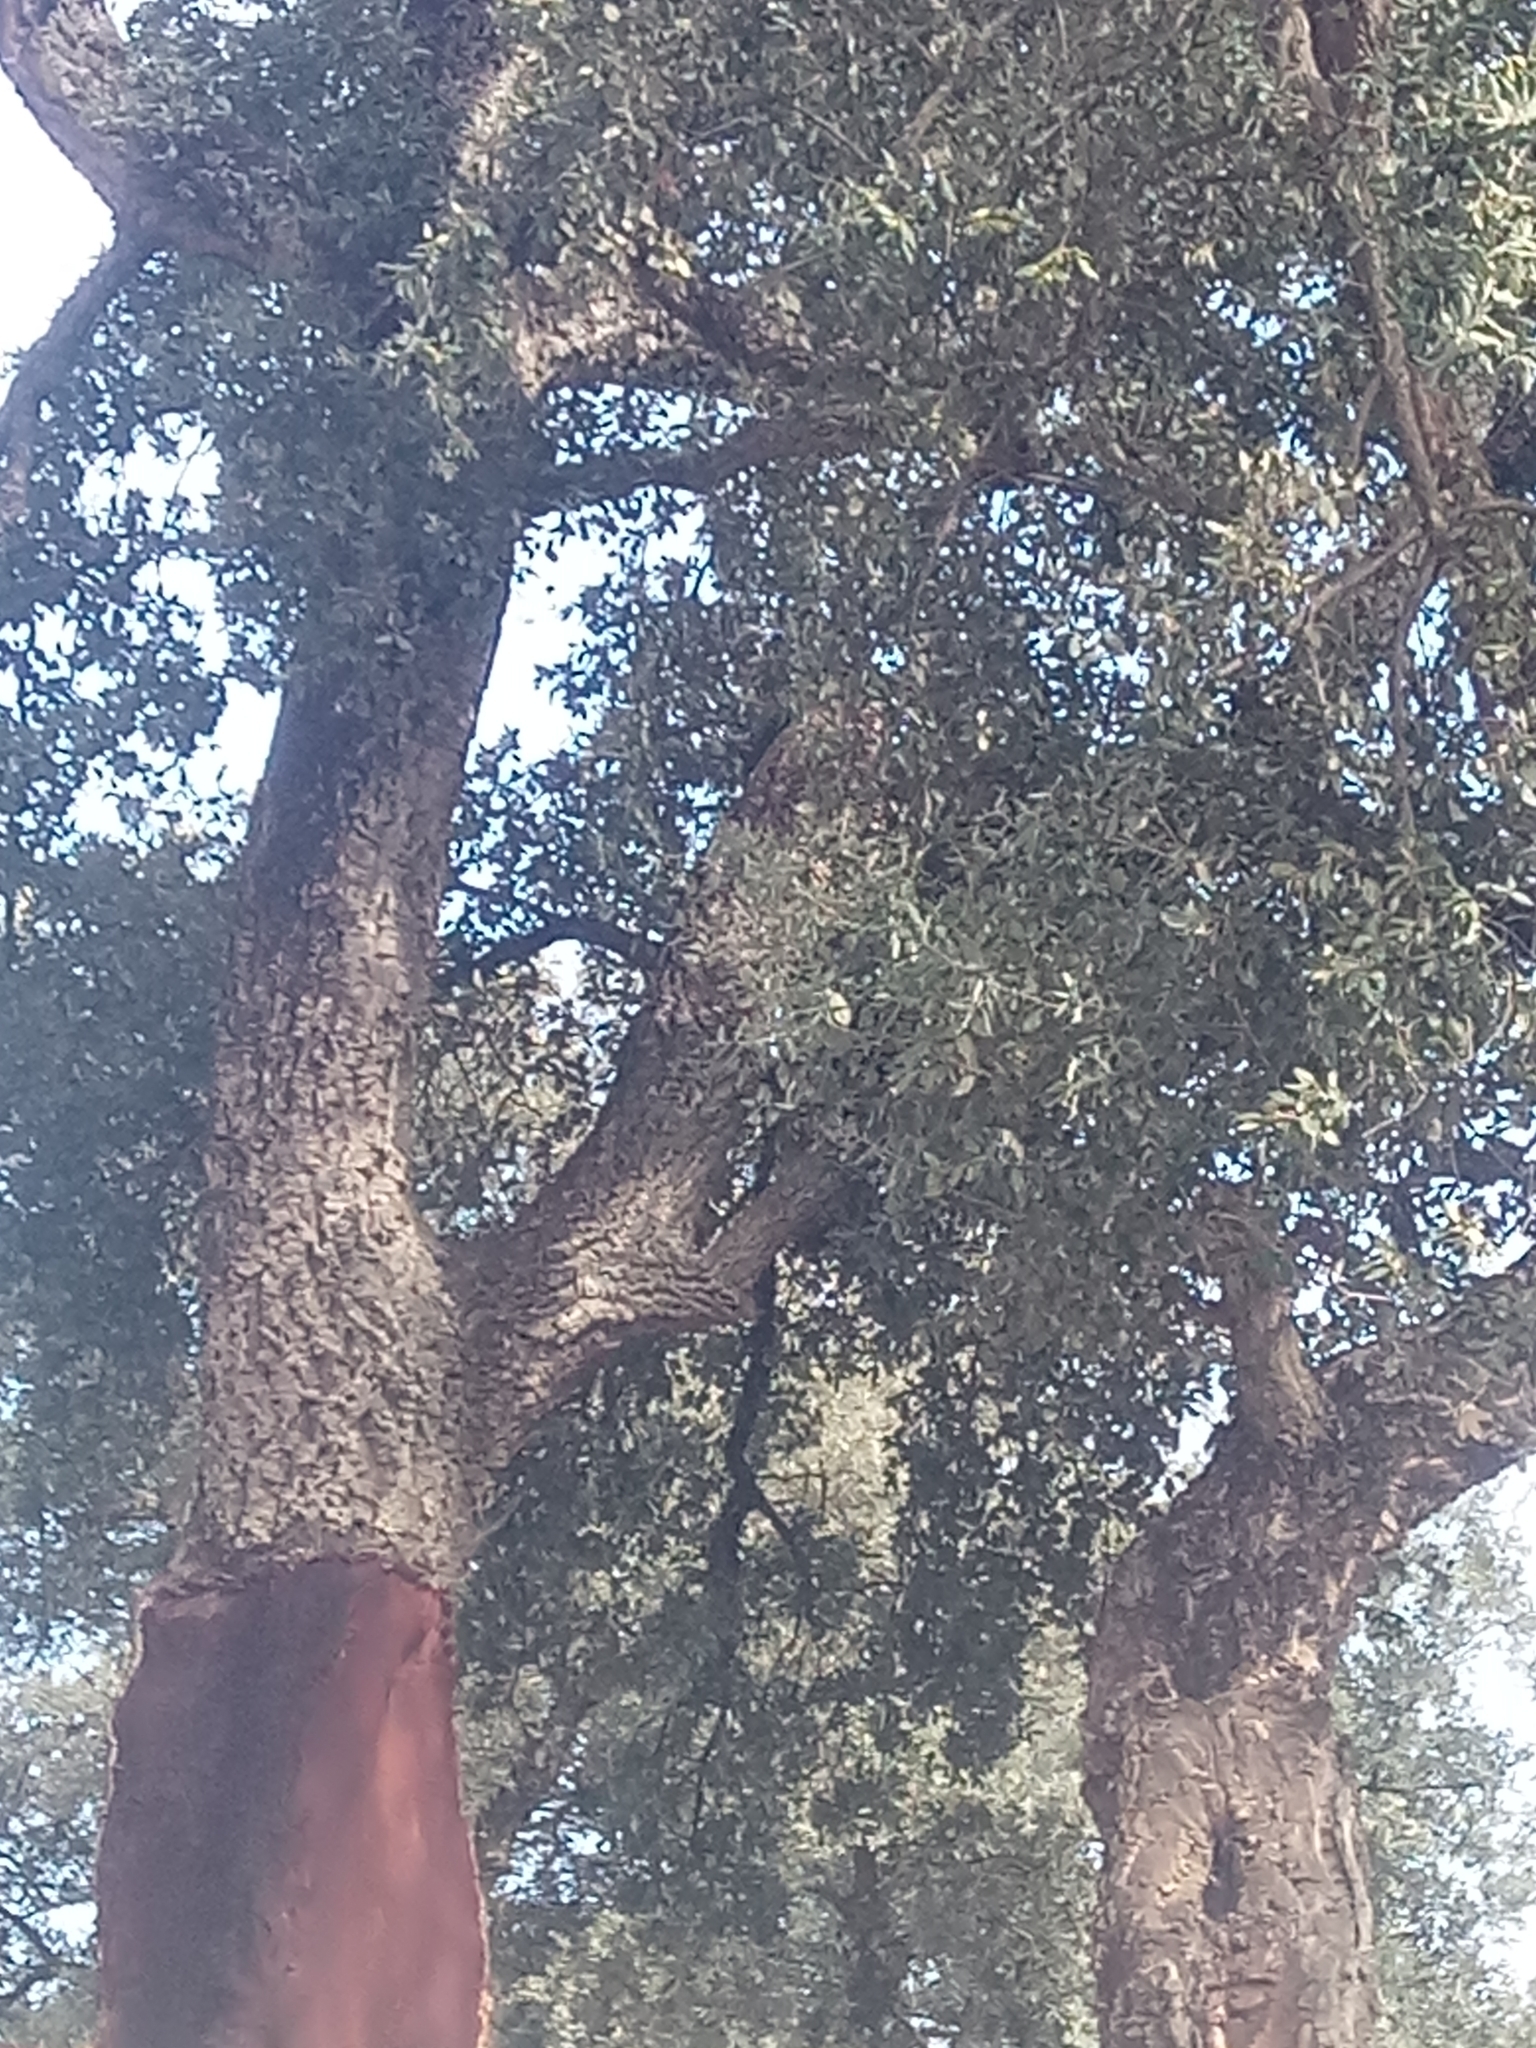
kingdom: Plantae
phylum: Tracheophyta
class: Magnoliopsida
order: Fagales
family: Fagaceae
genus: Quercus
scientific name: Quercus suber
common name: Cork oak
